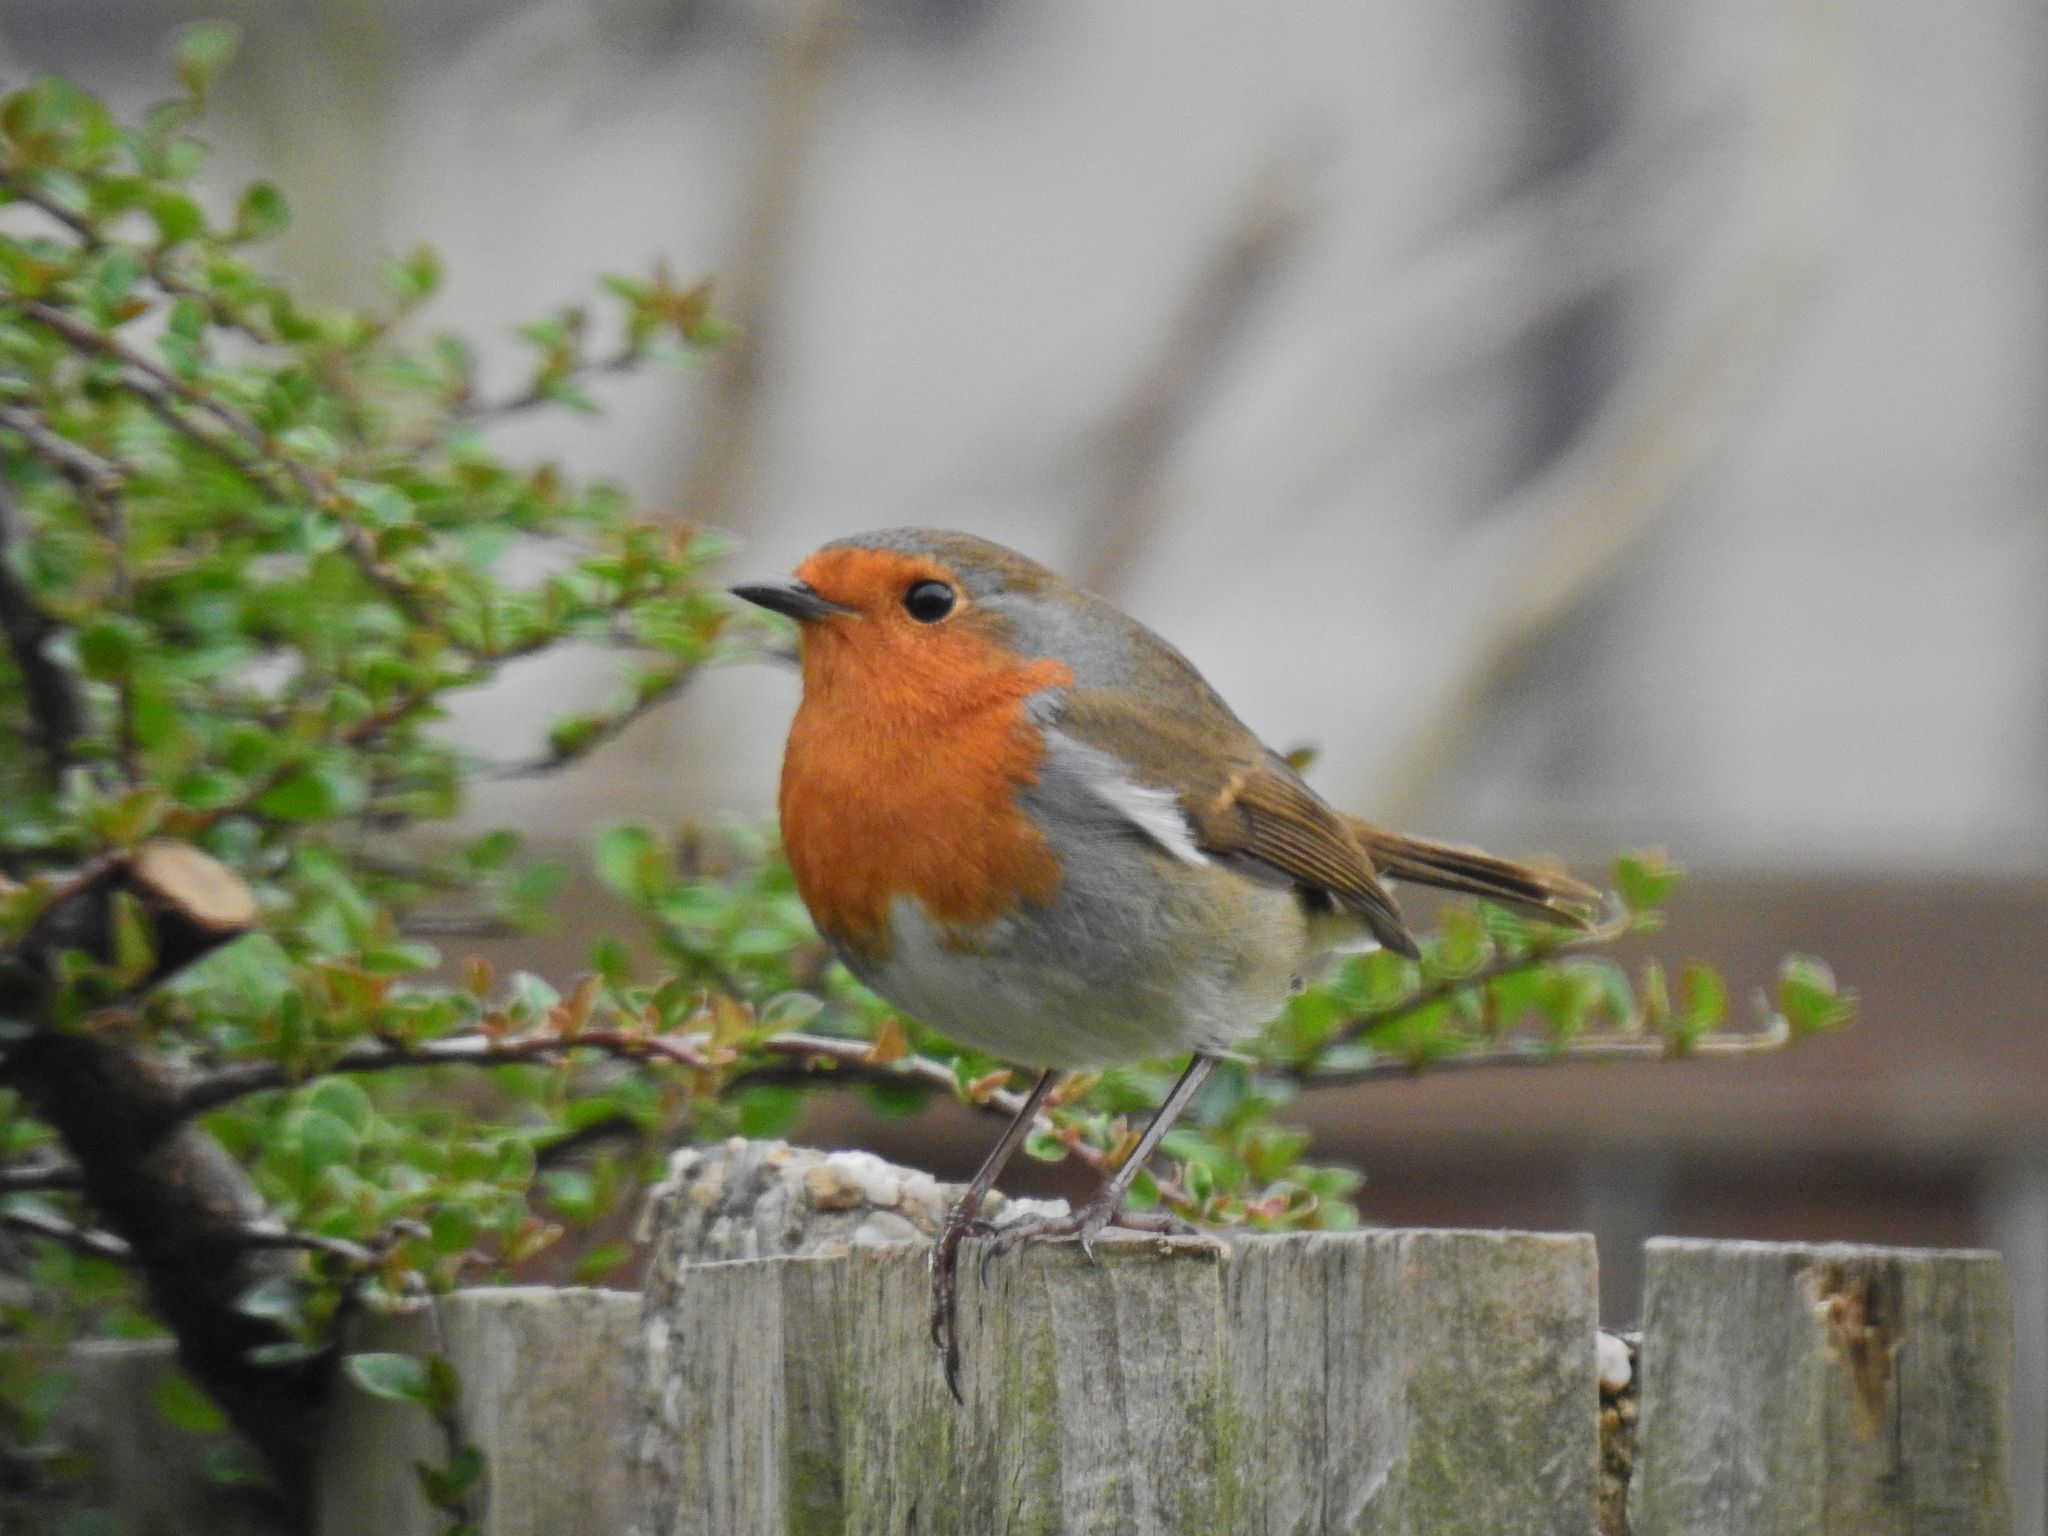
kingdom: Animalia
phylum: Chordata
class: Aves
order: Passeriformes
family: Muscicapidae
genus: Erithacus
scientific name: Erithacus rubecula
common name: European robin
